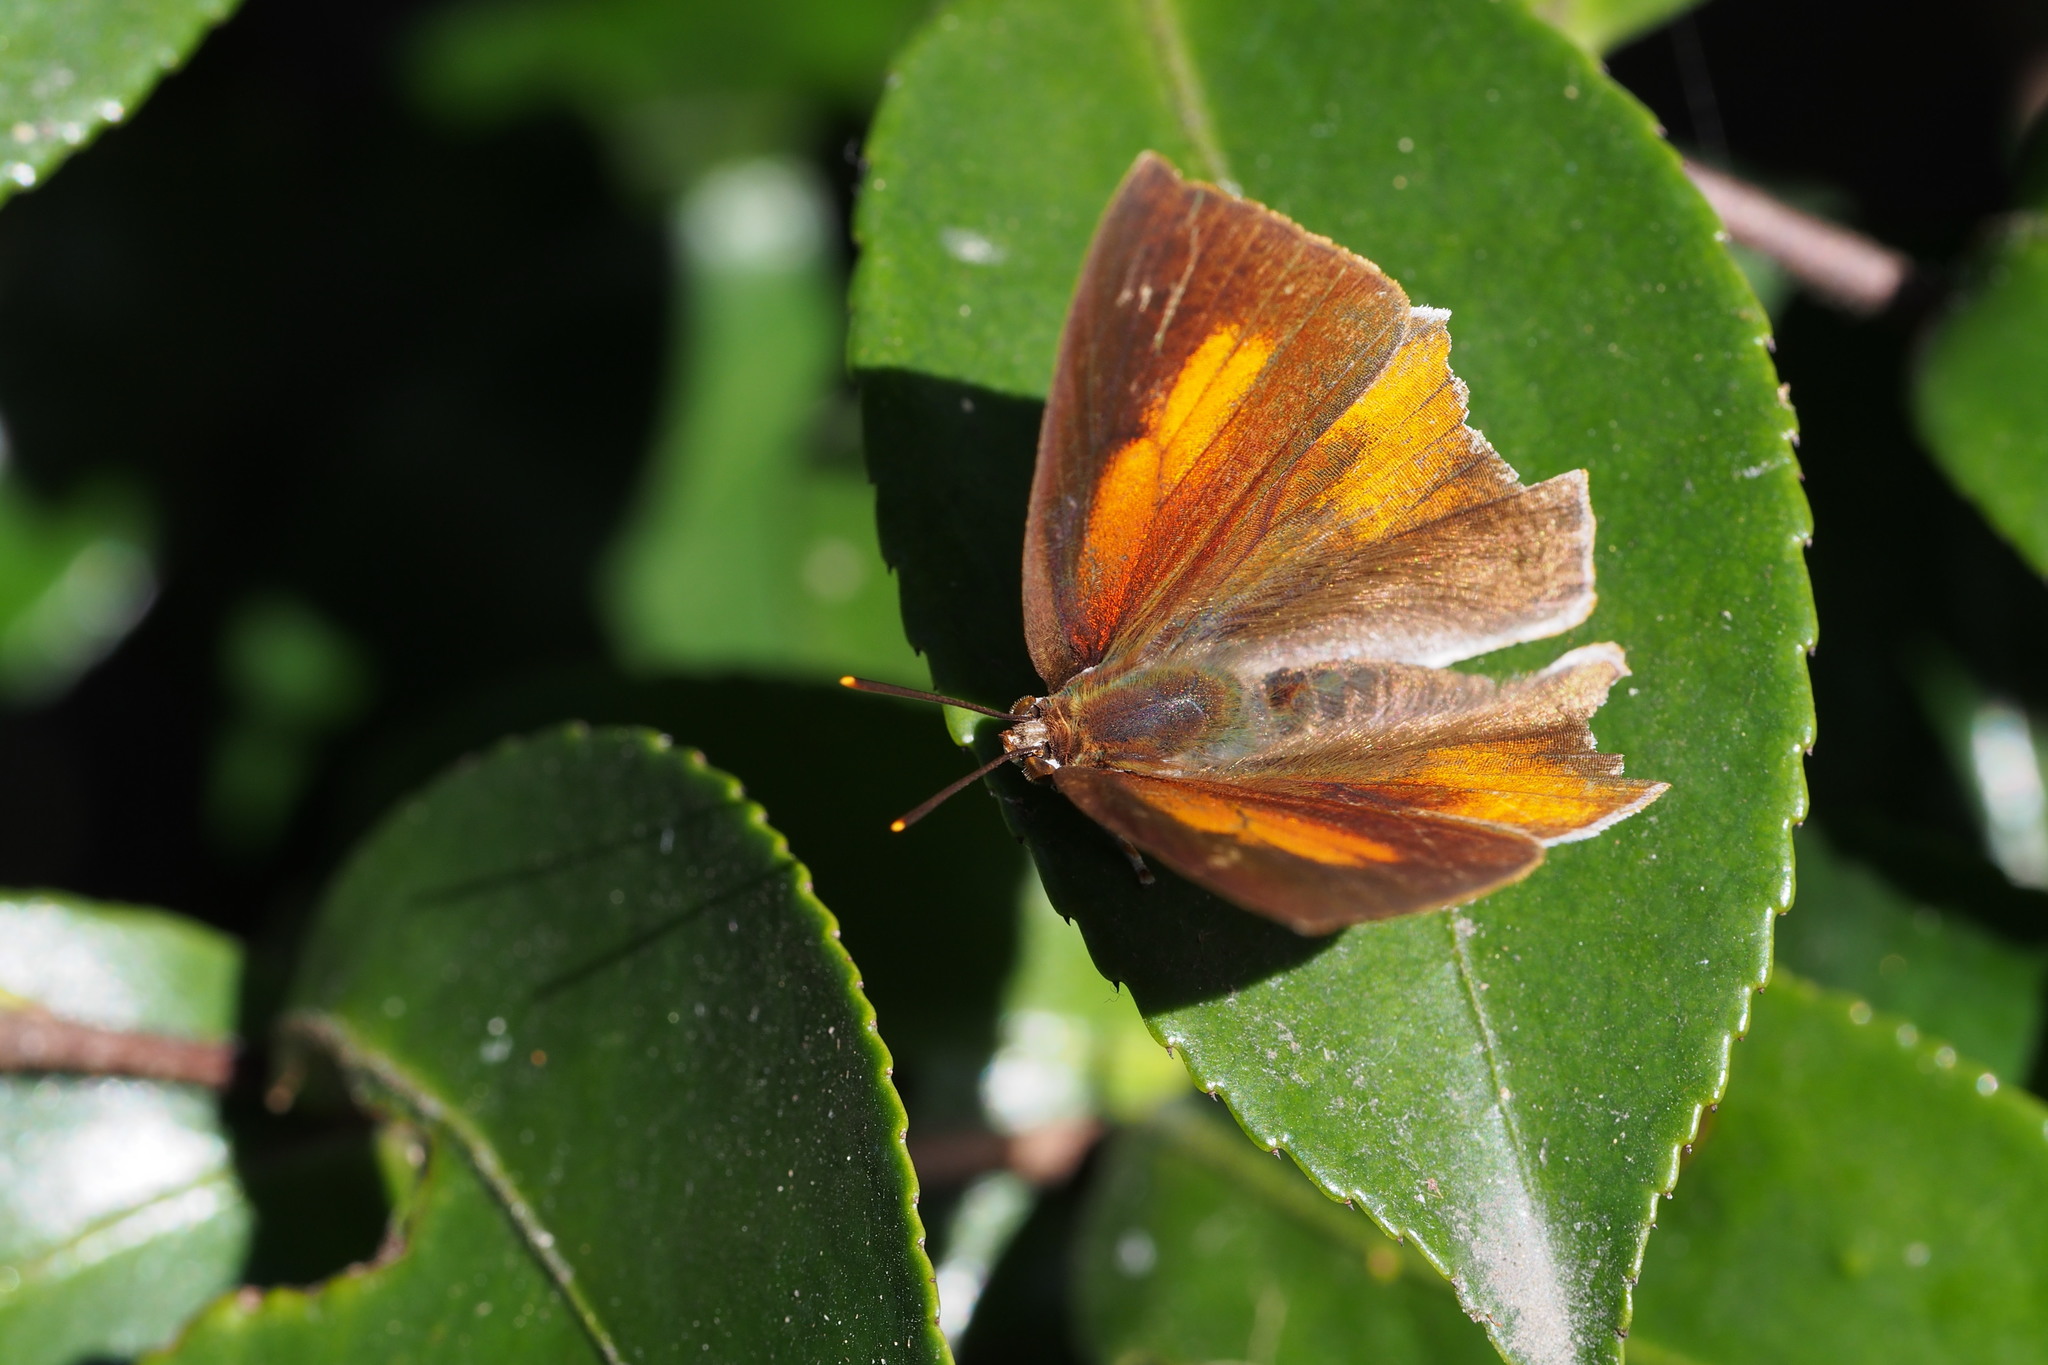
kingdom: Animalia
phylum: Arthropoda
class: Insecta
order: Lepidoptera
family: Lycaenidae
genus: Curetis
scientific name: Curetis acuta
